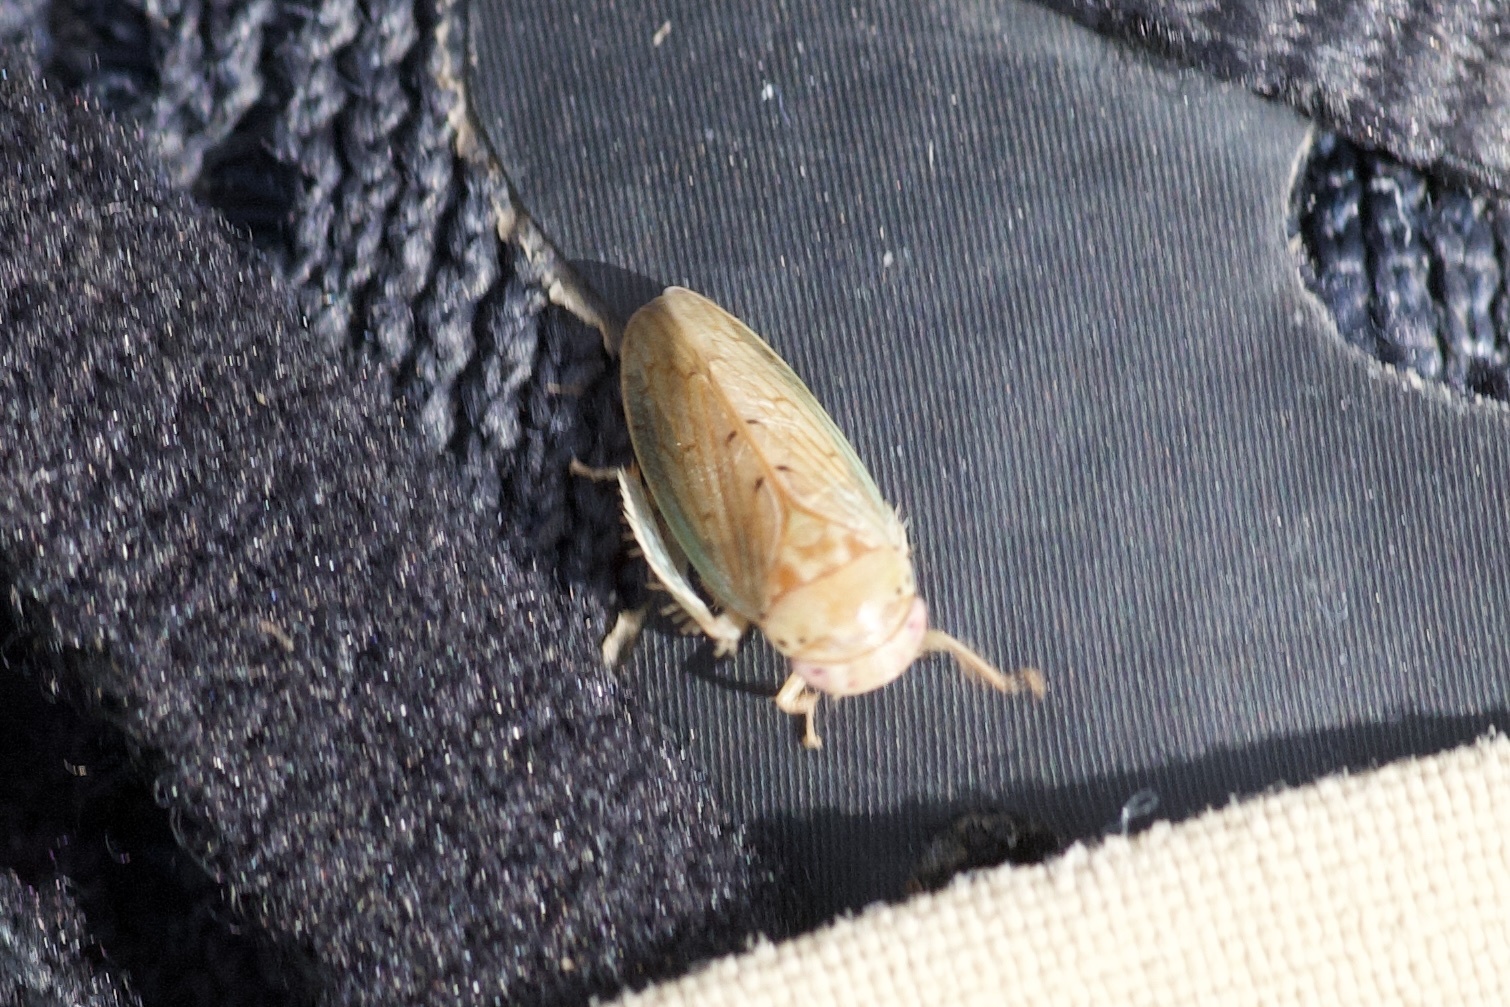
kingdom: Animalia
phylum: Arthropoda
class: Insecta
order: Hemiptera
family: Cicadellidae
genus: Polana
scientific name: Polana quadrinotata
